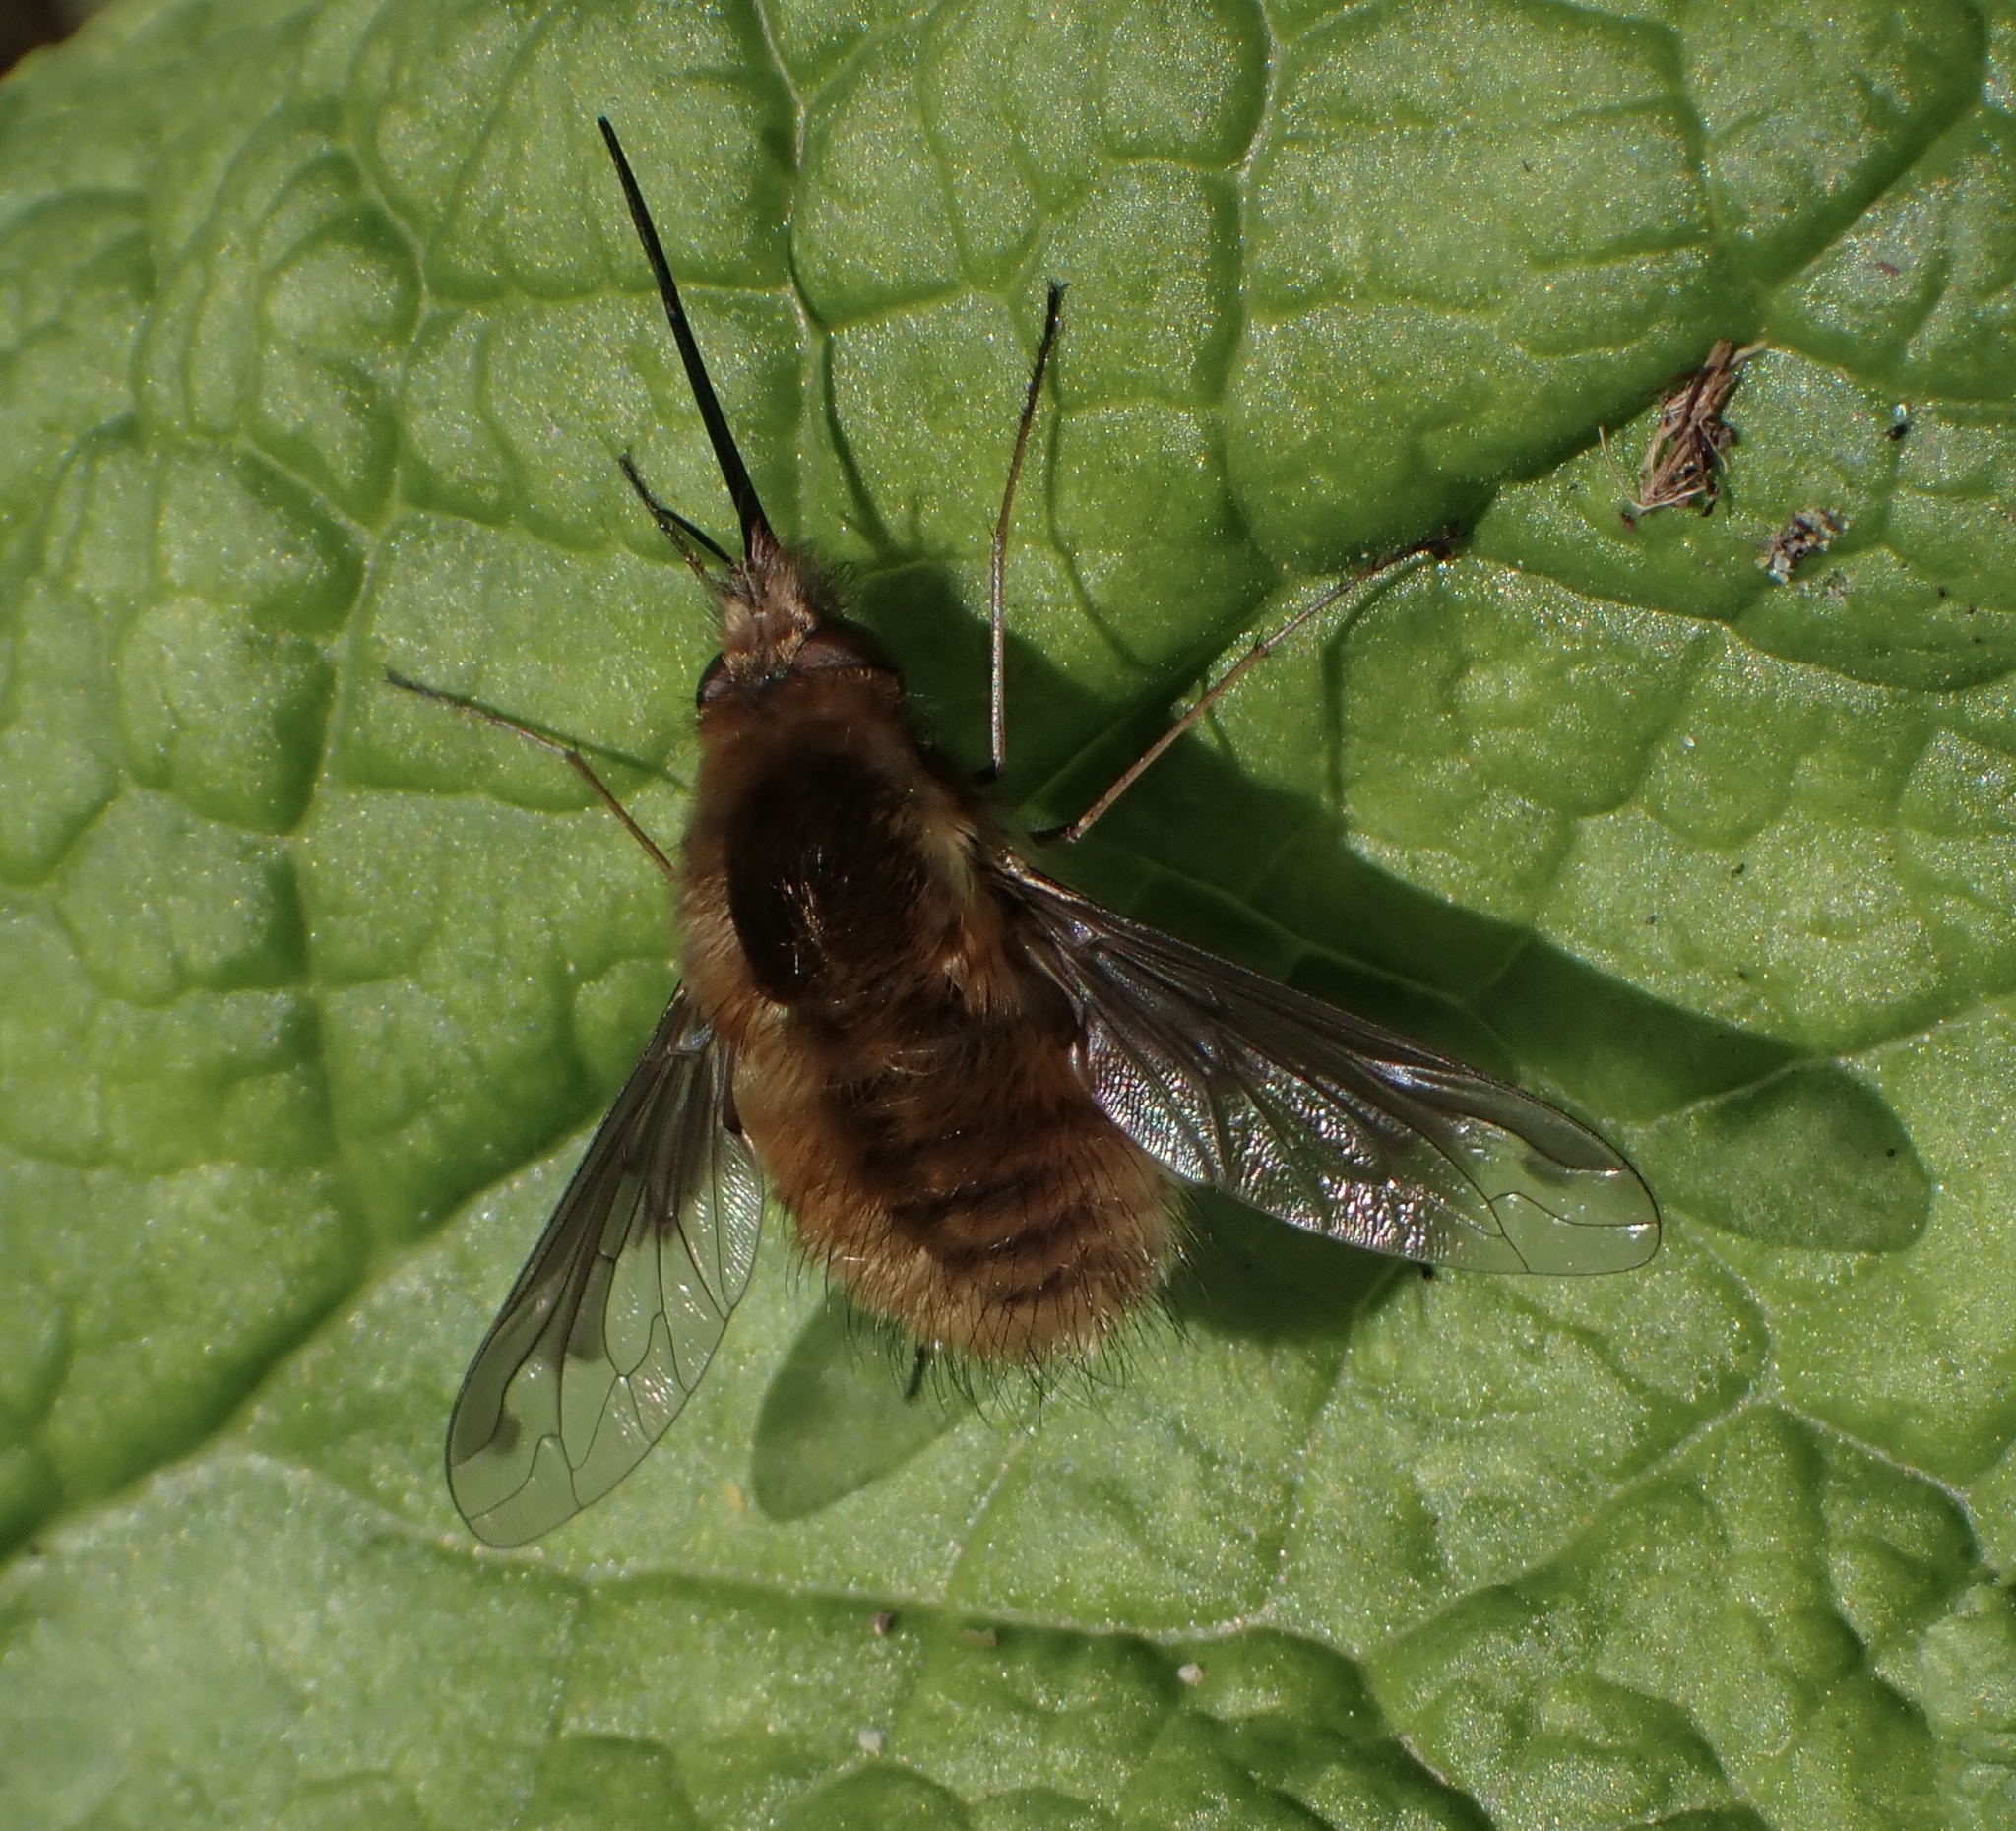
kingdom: Animalia
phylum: Arthropoda
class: Insecta
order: Diptera
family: Bombyliidae
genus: Bombylius
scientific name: Bombylius major
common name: Bee fly
